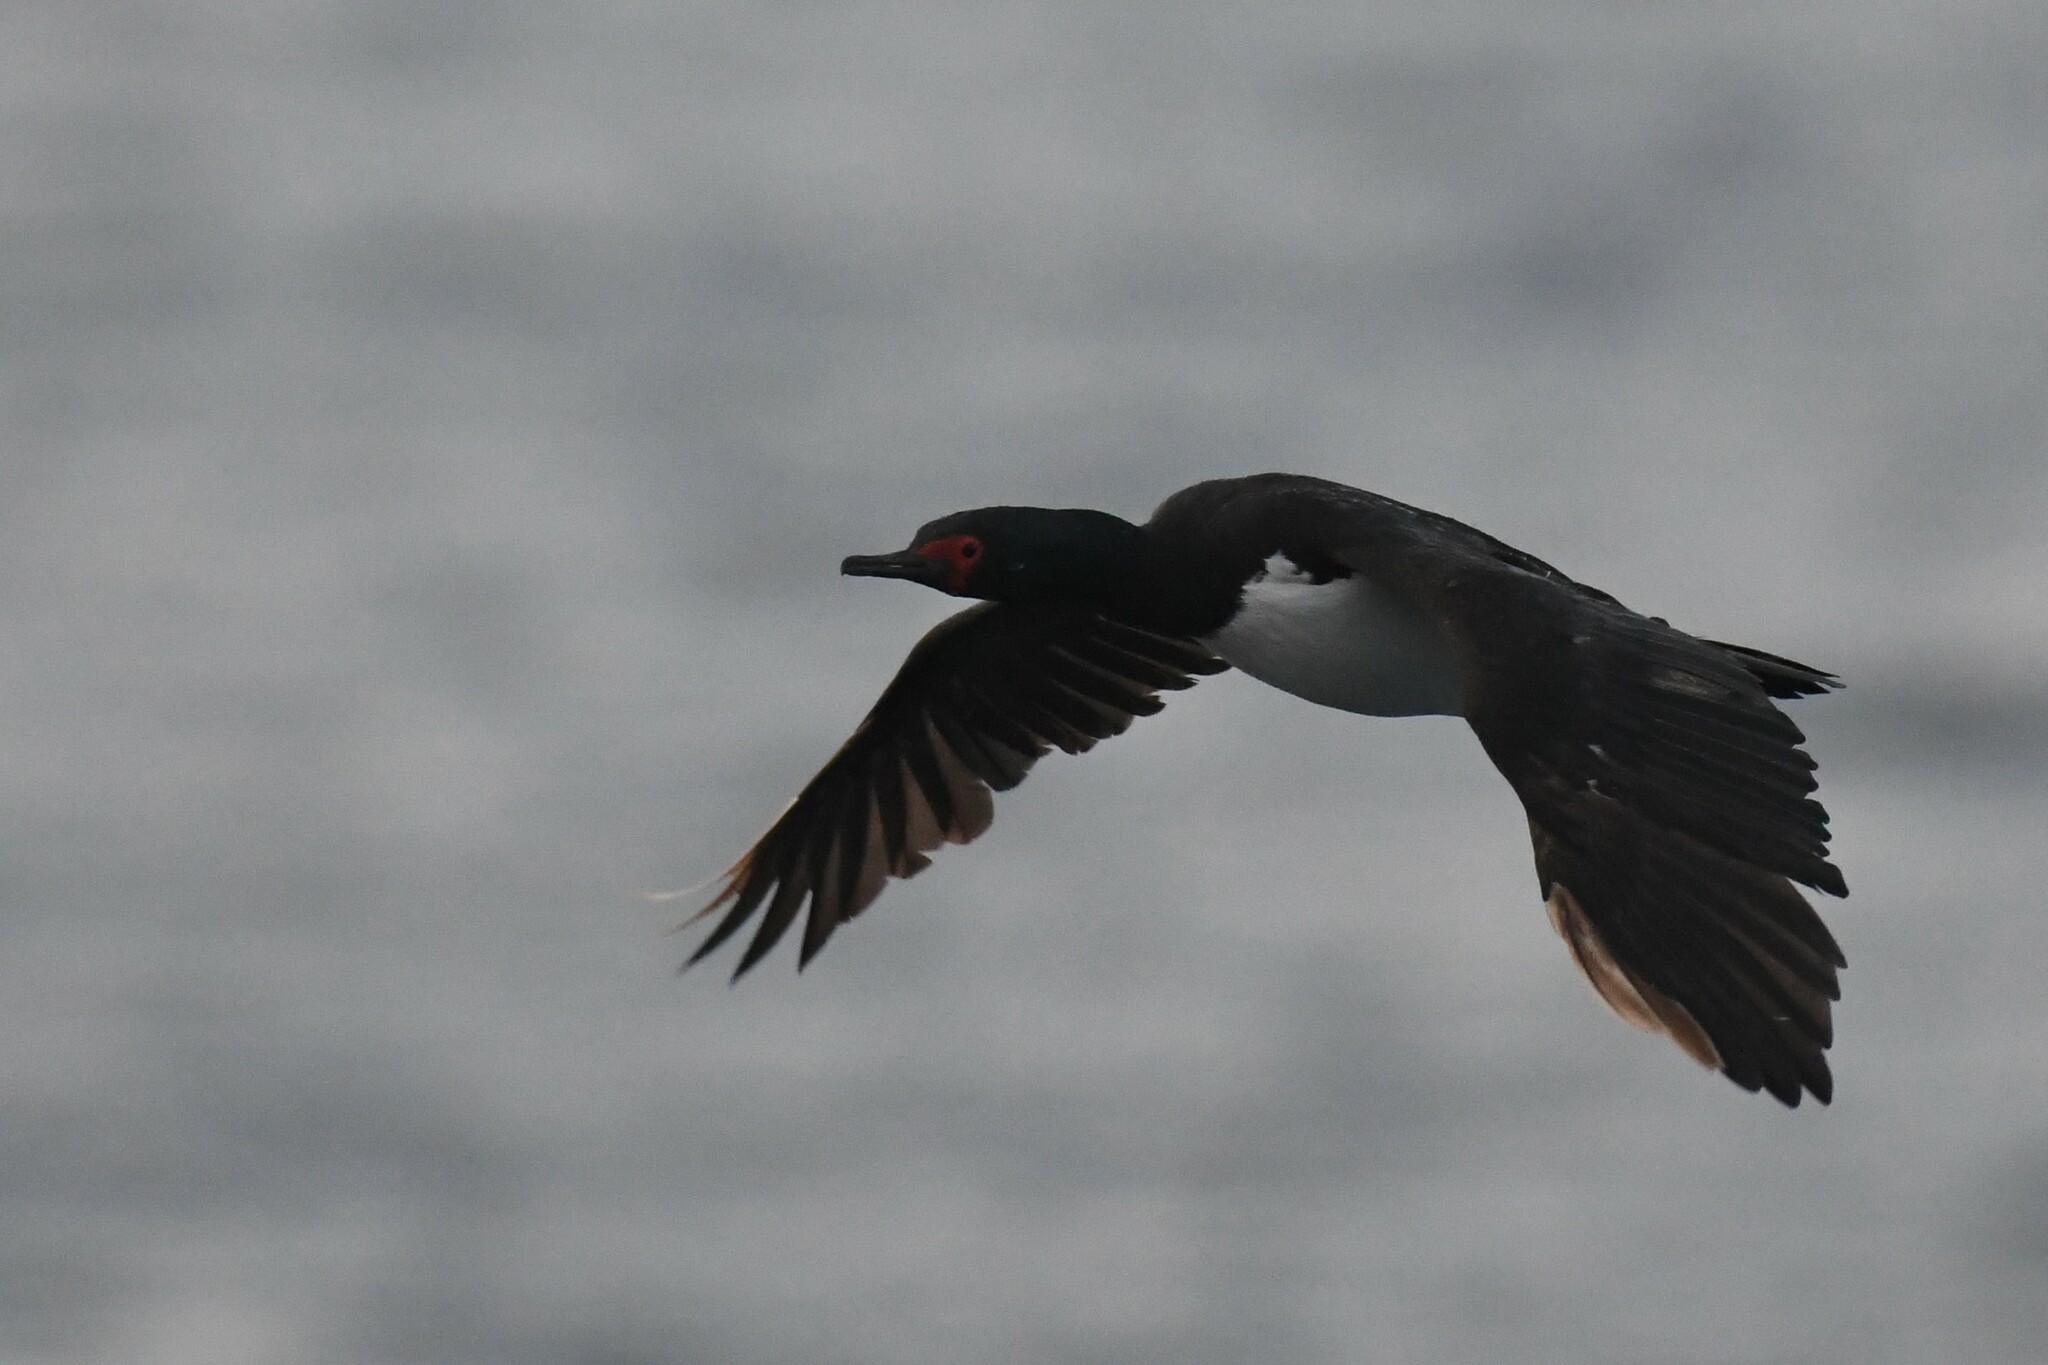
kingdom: Animalia
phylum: Chordata
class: Aves
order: Suliformes
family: Phalacrocoracidae
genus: Phalacrocorax
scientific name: Phalacrocorax magellanicus
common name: Rock shag
